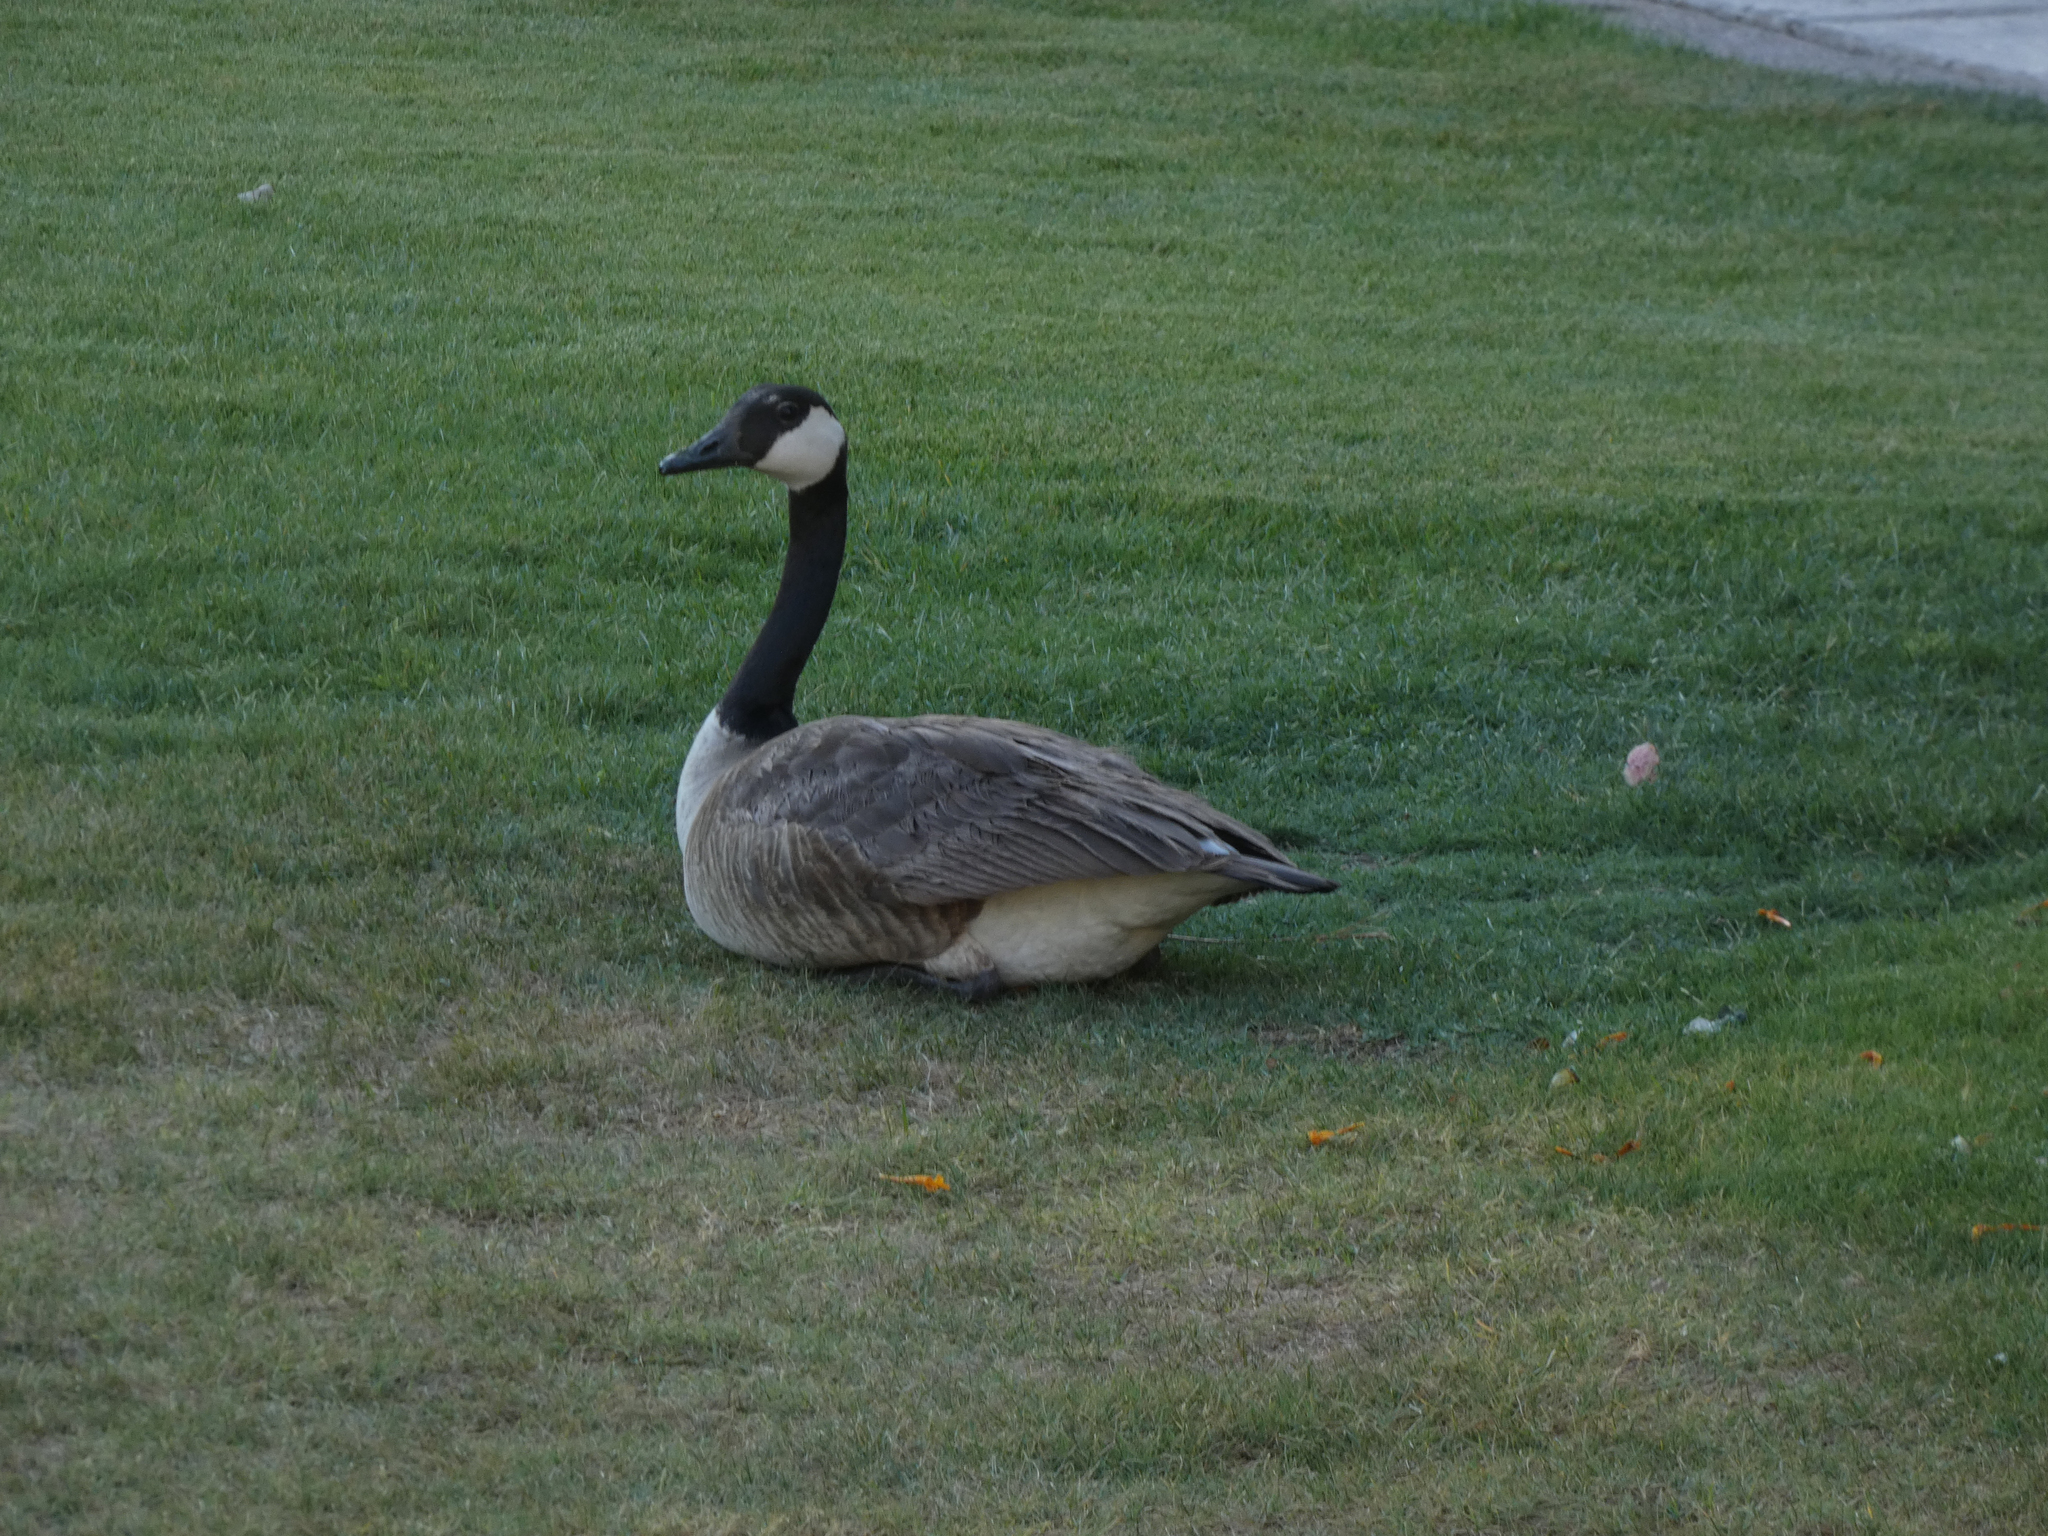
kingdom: Animalia
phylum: Chordata
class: Aves
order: Anseriformes
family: Anatidae
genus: Branta
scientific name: Branta canadensis
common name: Canada goose
